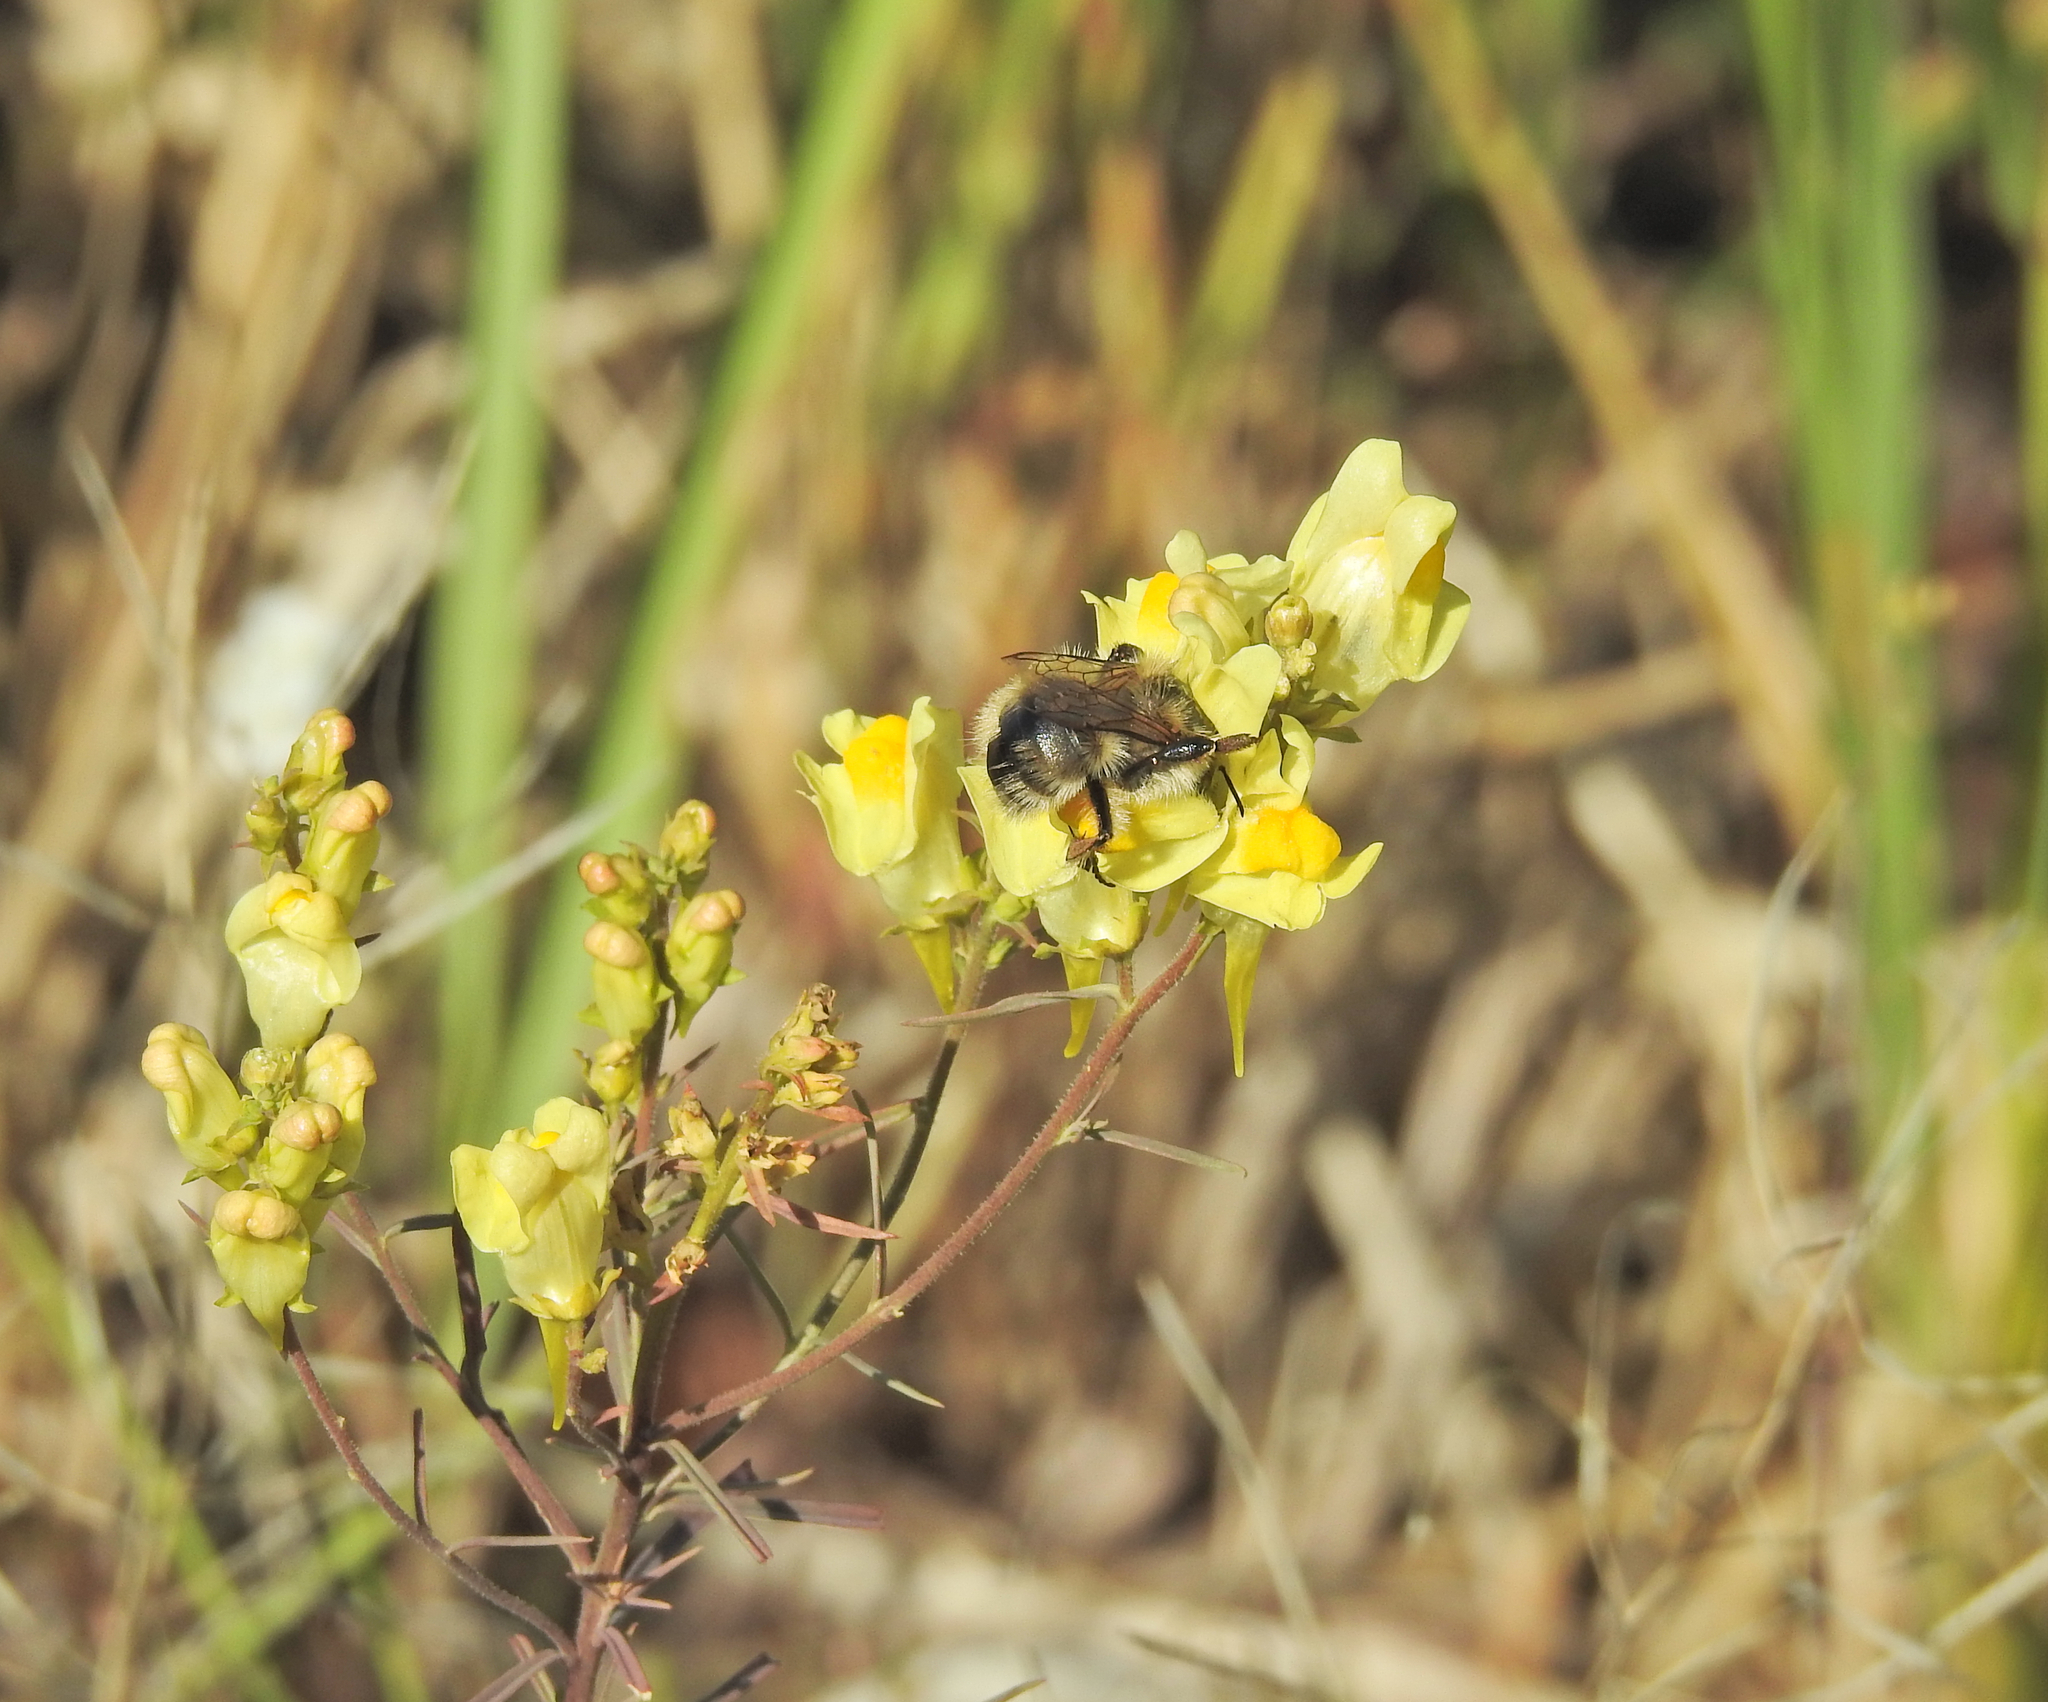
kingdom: Plantae
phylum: Tracheophyta
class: Magnoliopsida
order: Lamiales
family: Plantaginaceae
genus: Linaria
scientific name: Linaria vulgaris
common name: Butter and eggs
